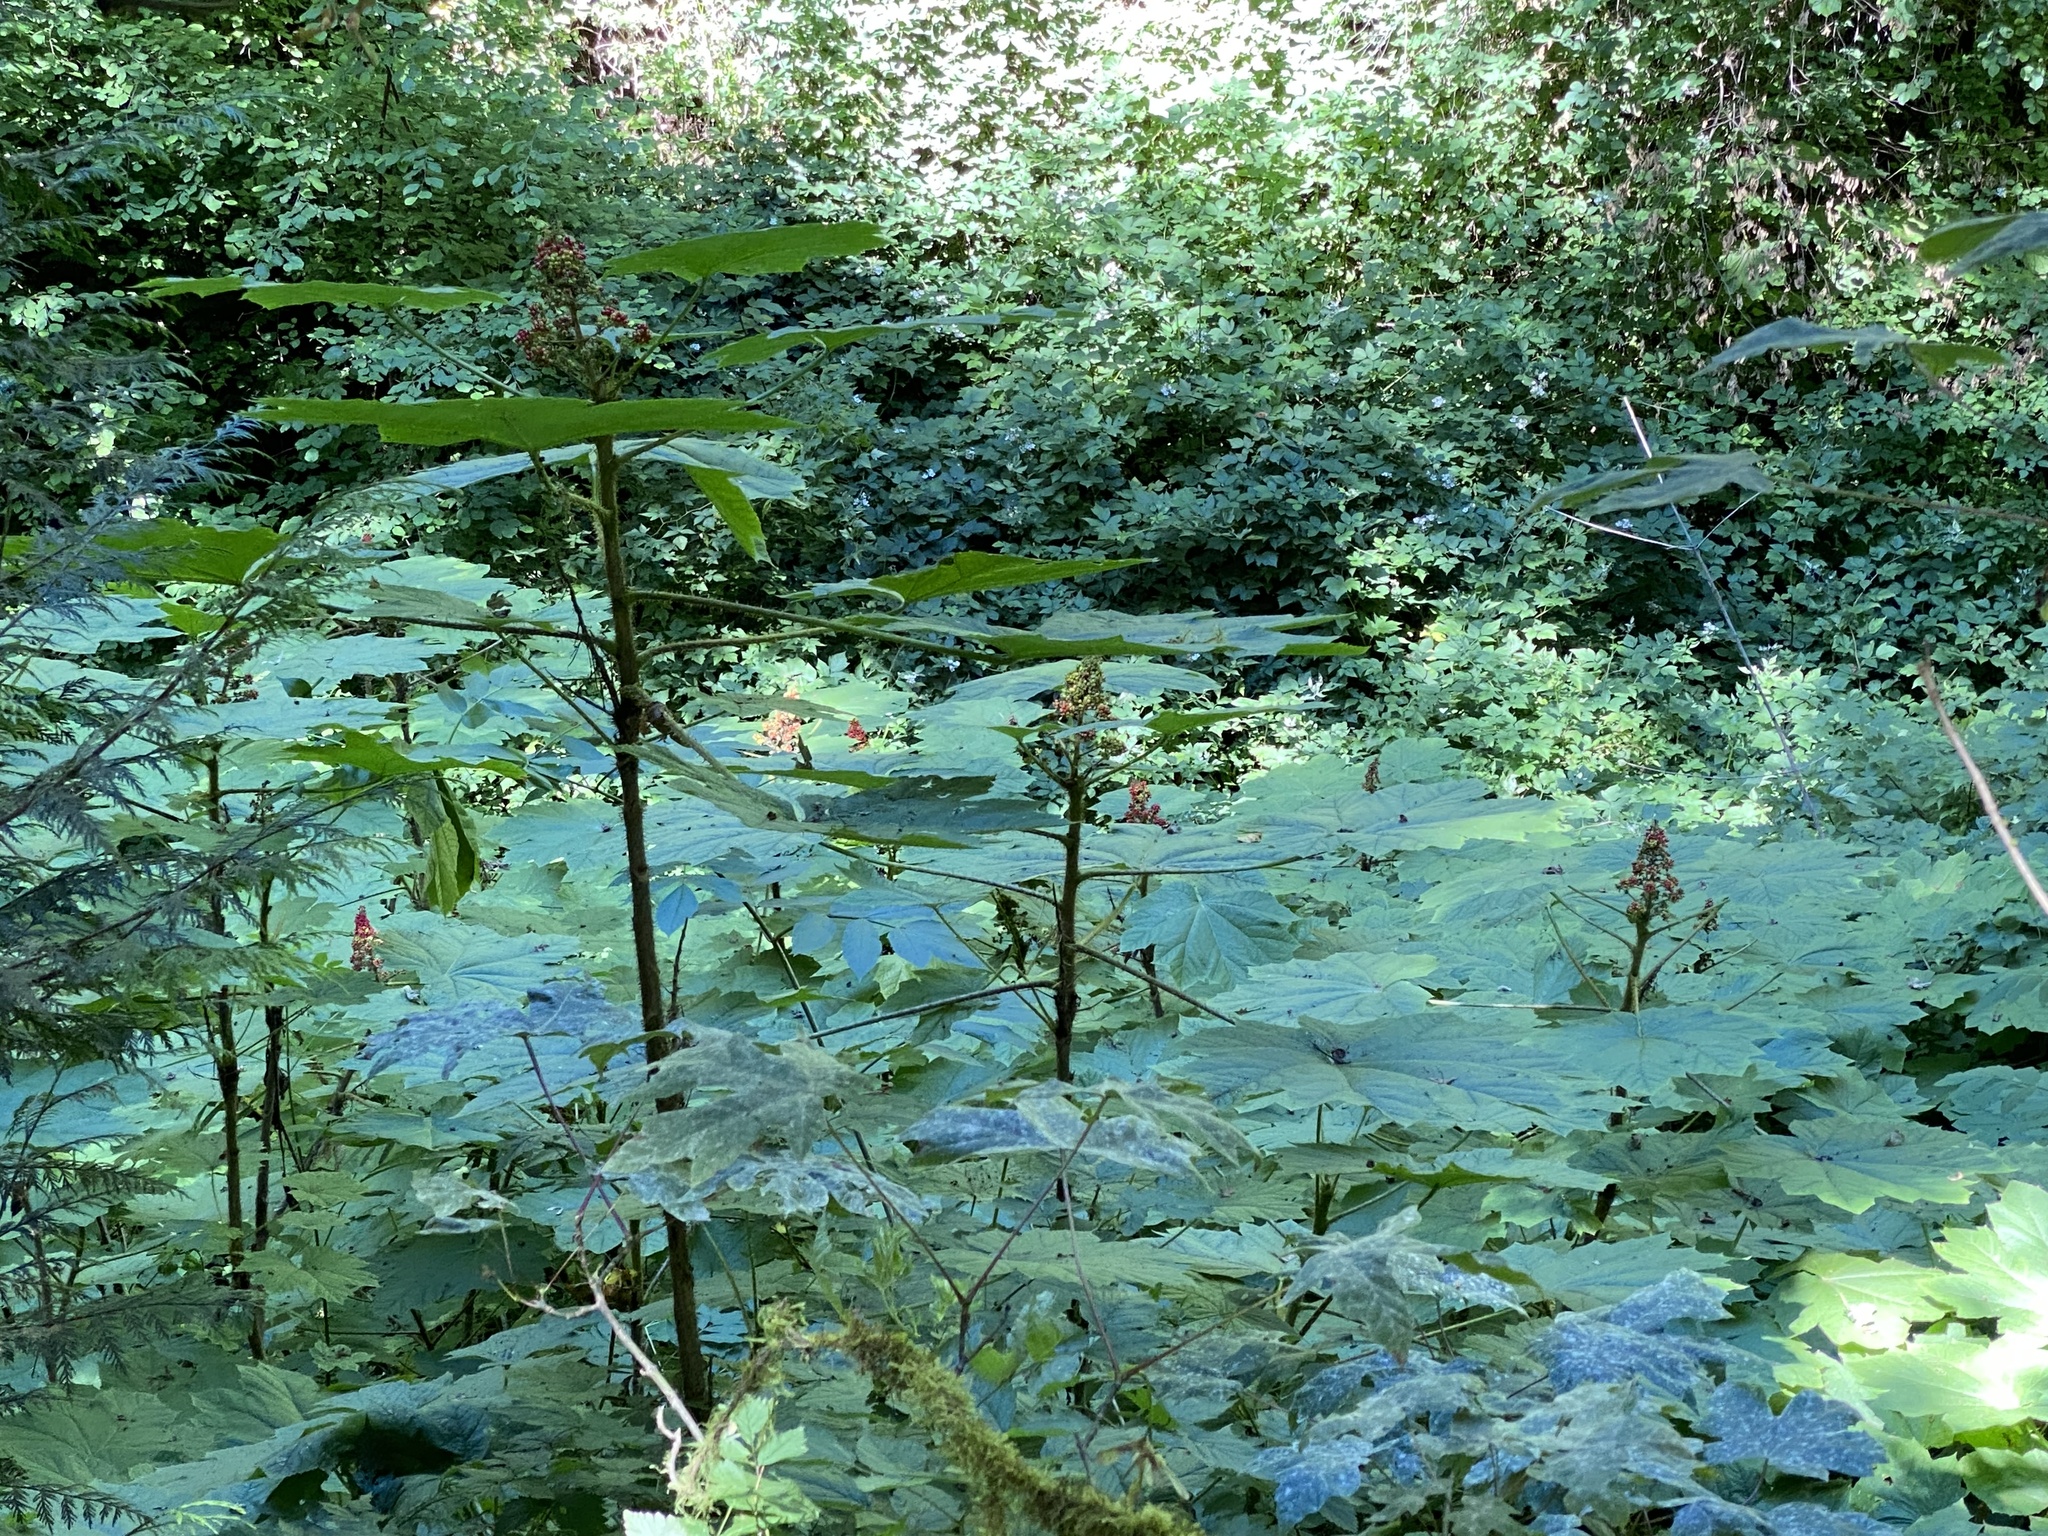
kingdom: Plantae
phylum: Tracheophyta
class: Magnoliopsida
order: Apiales
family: Araliaceae
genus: Oplopanax
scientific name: Oplopanax horridus
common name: Devil's walking-stick
